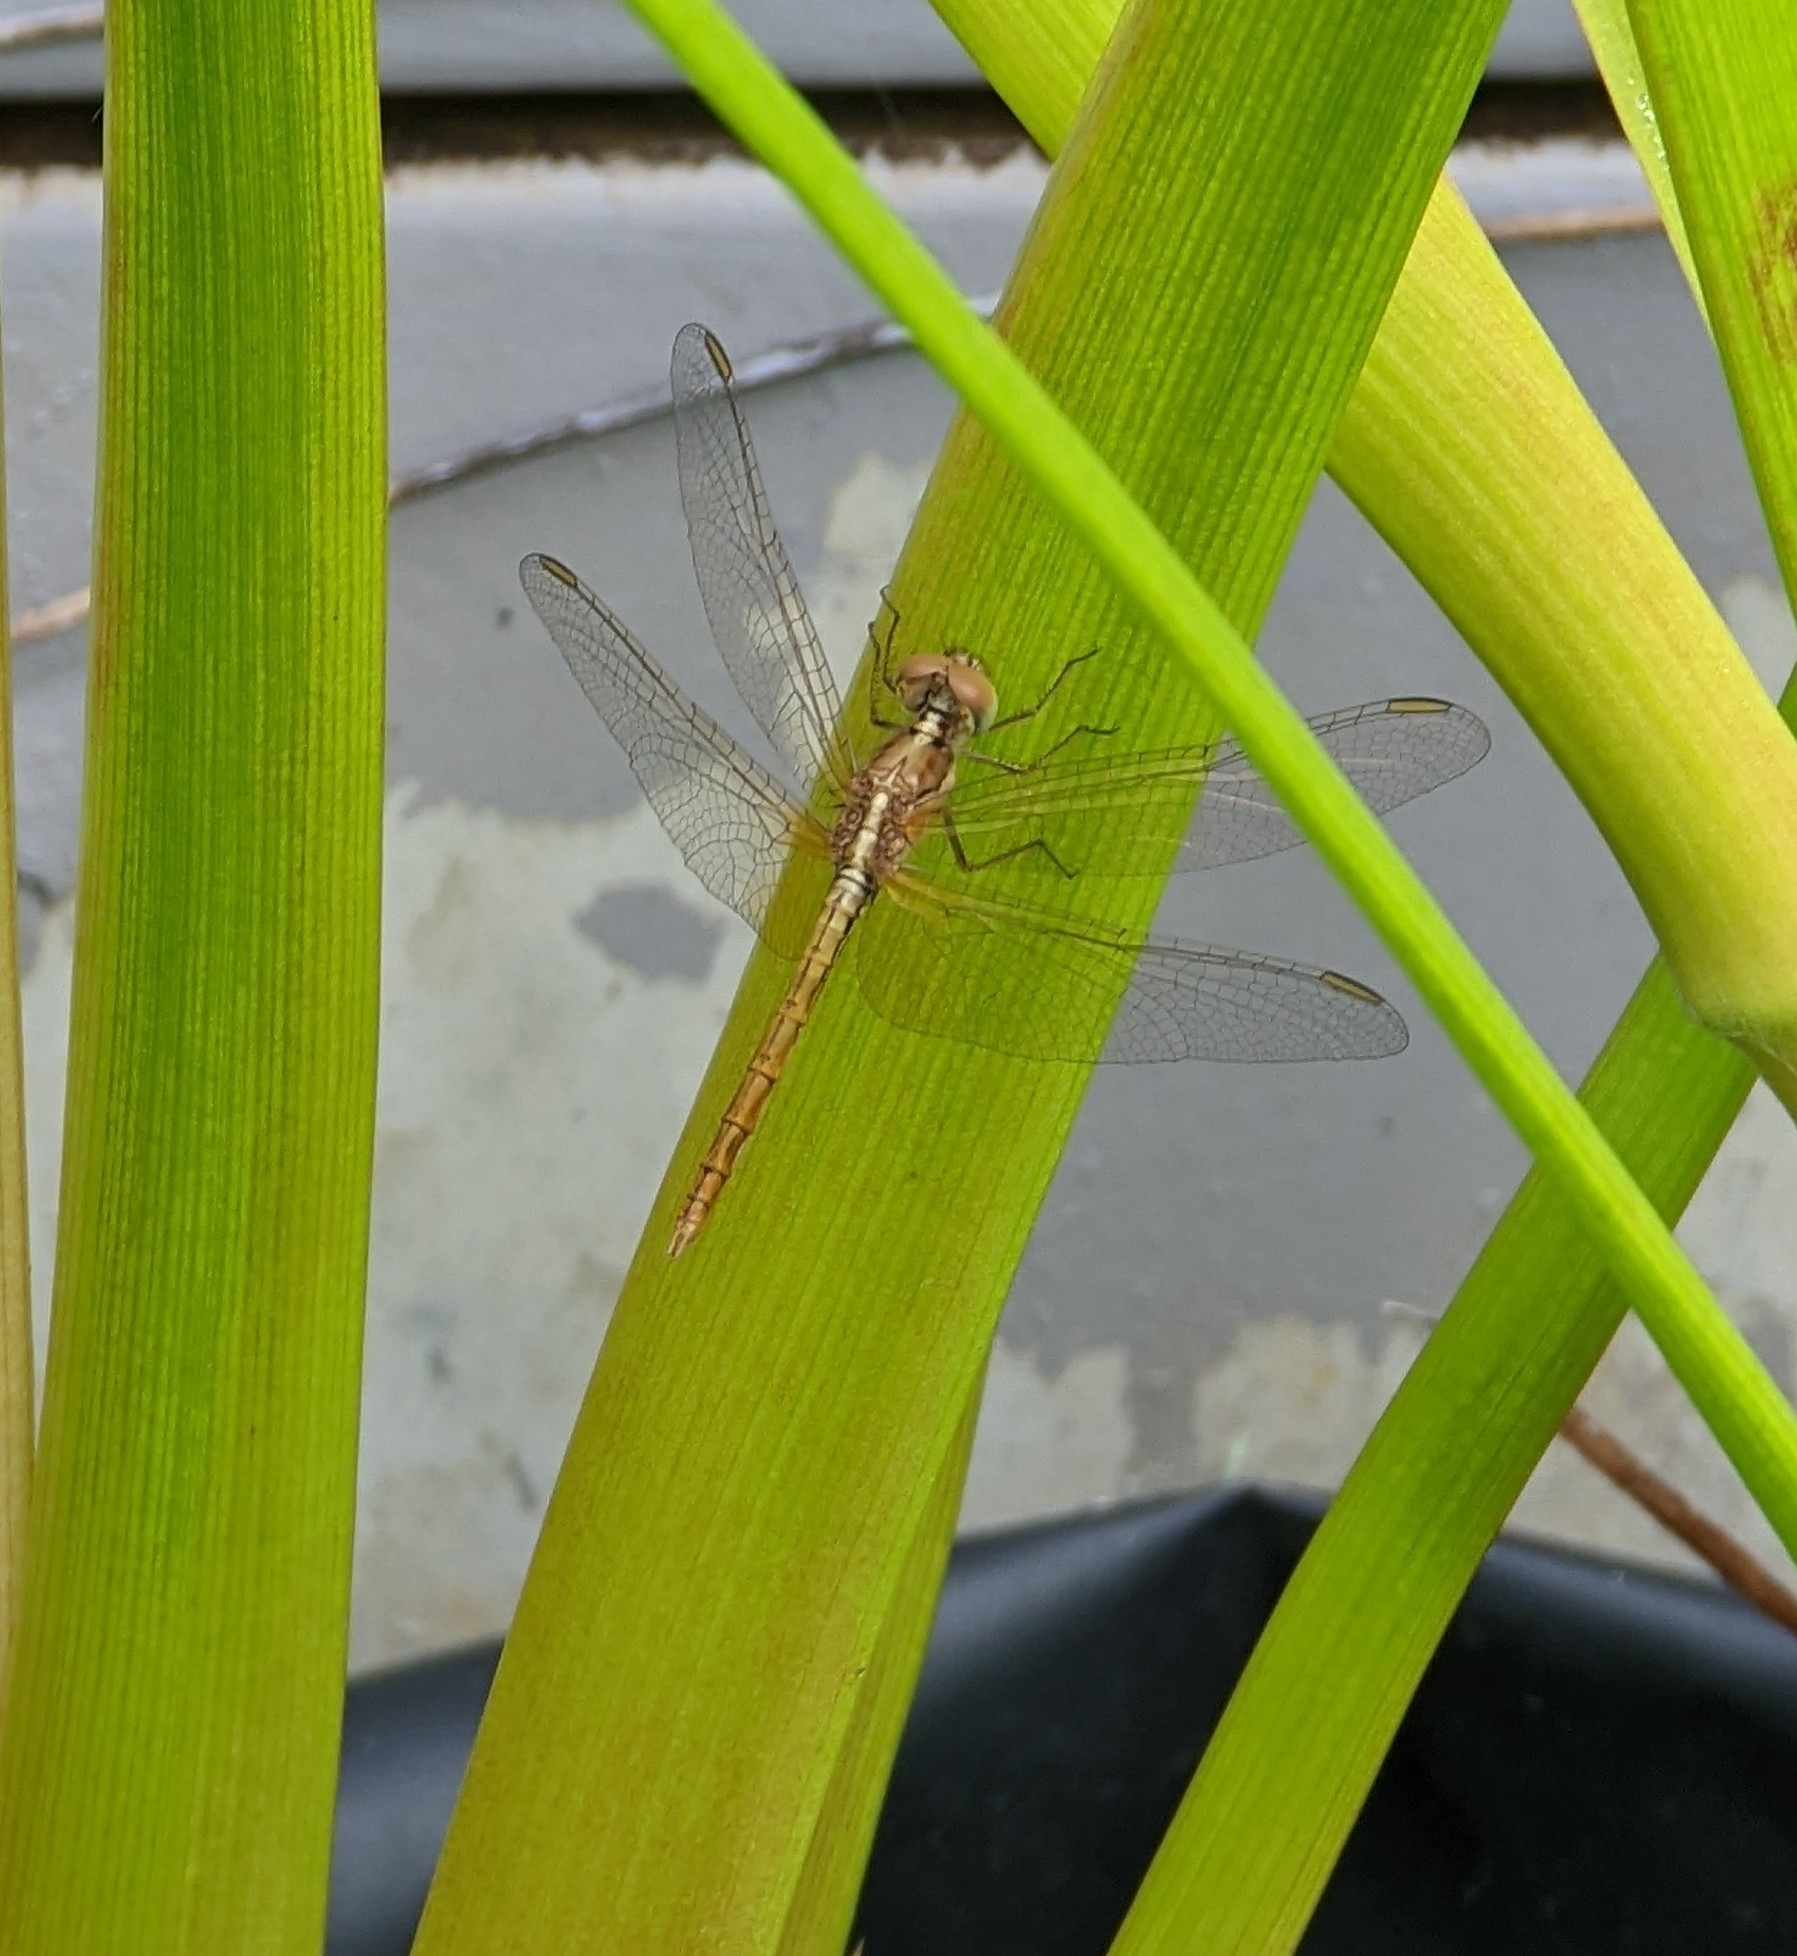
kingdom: Animalia
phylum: Arthropoda
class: Insecta
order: Odonata
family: Libellulidae
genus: Diplacodes
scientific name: Diplacodes haematodes
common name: Scarlet percher
